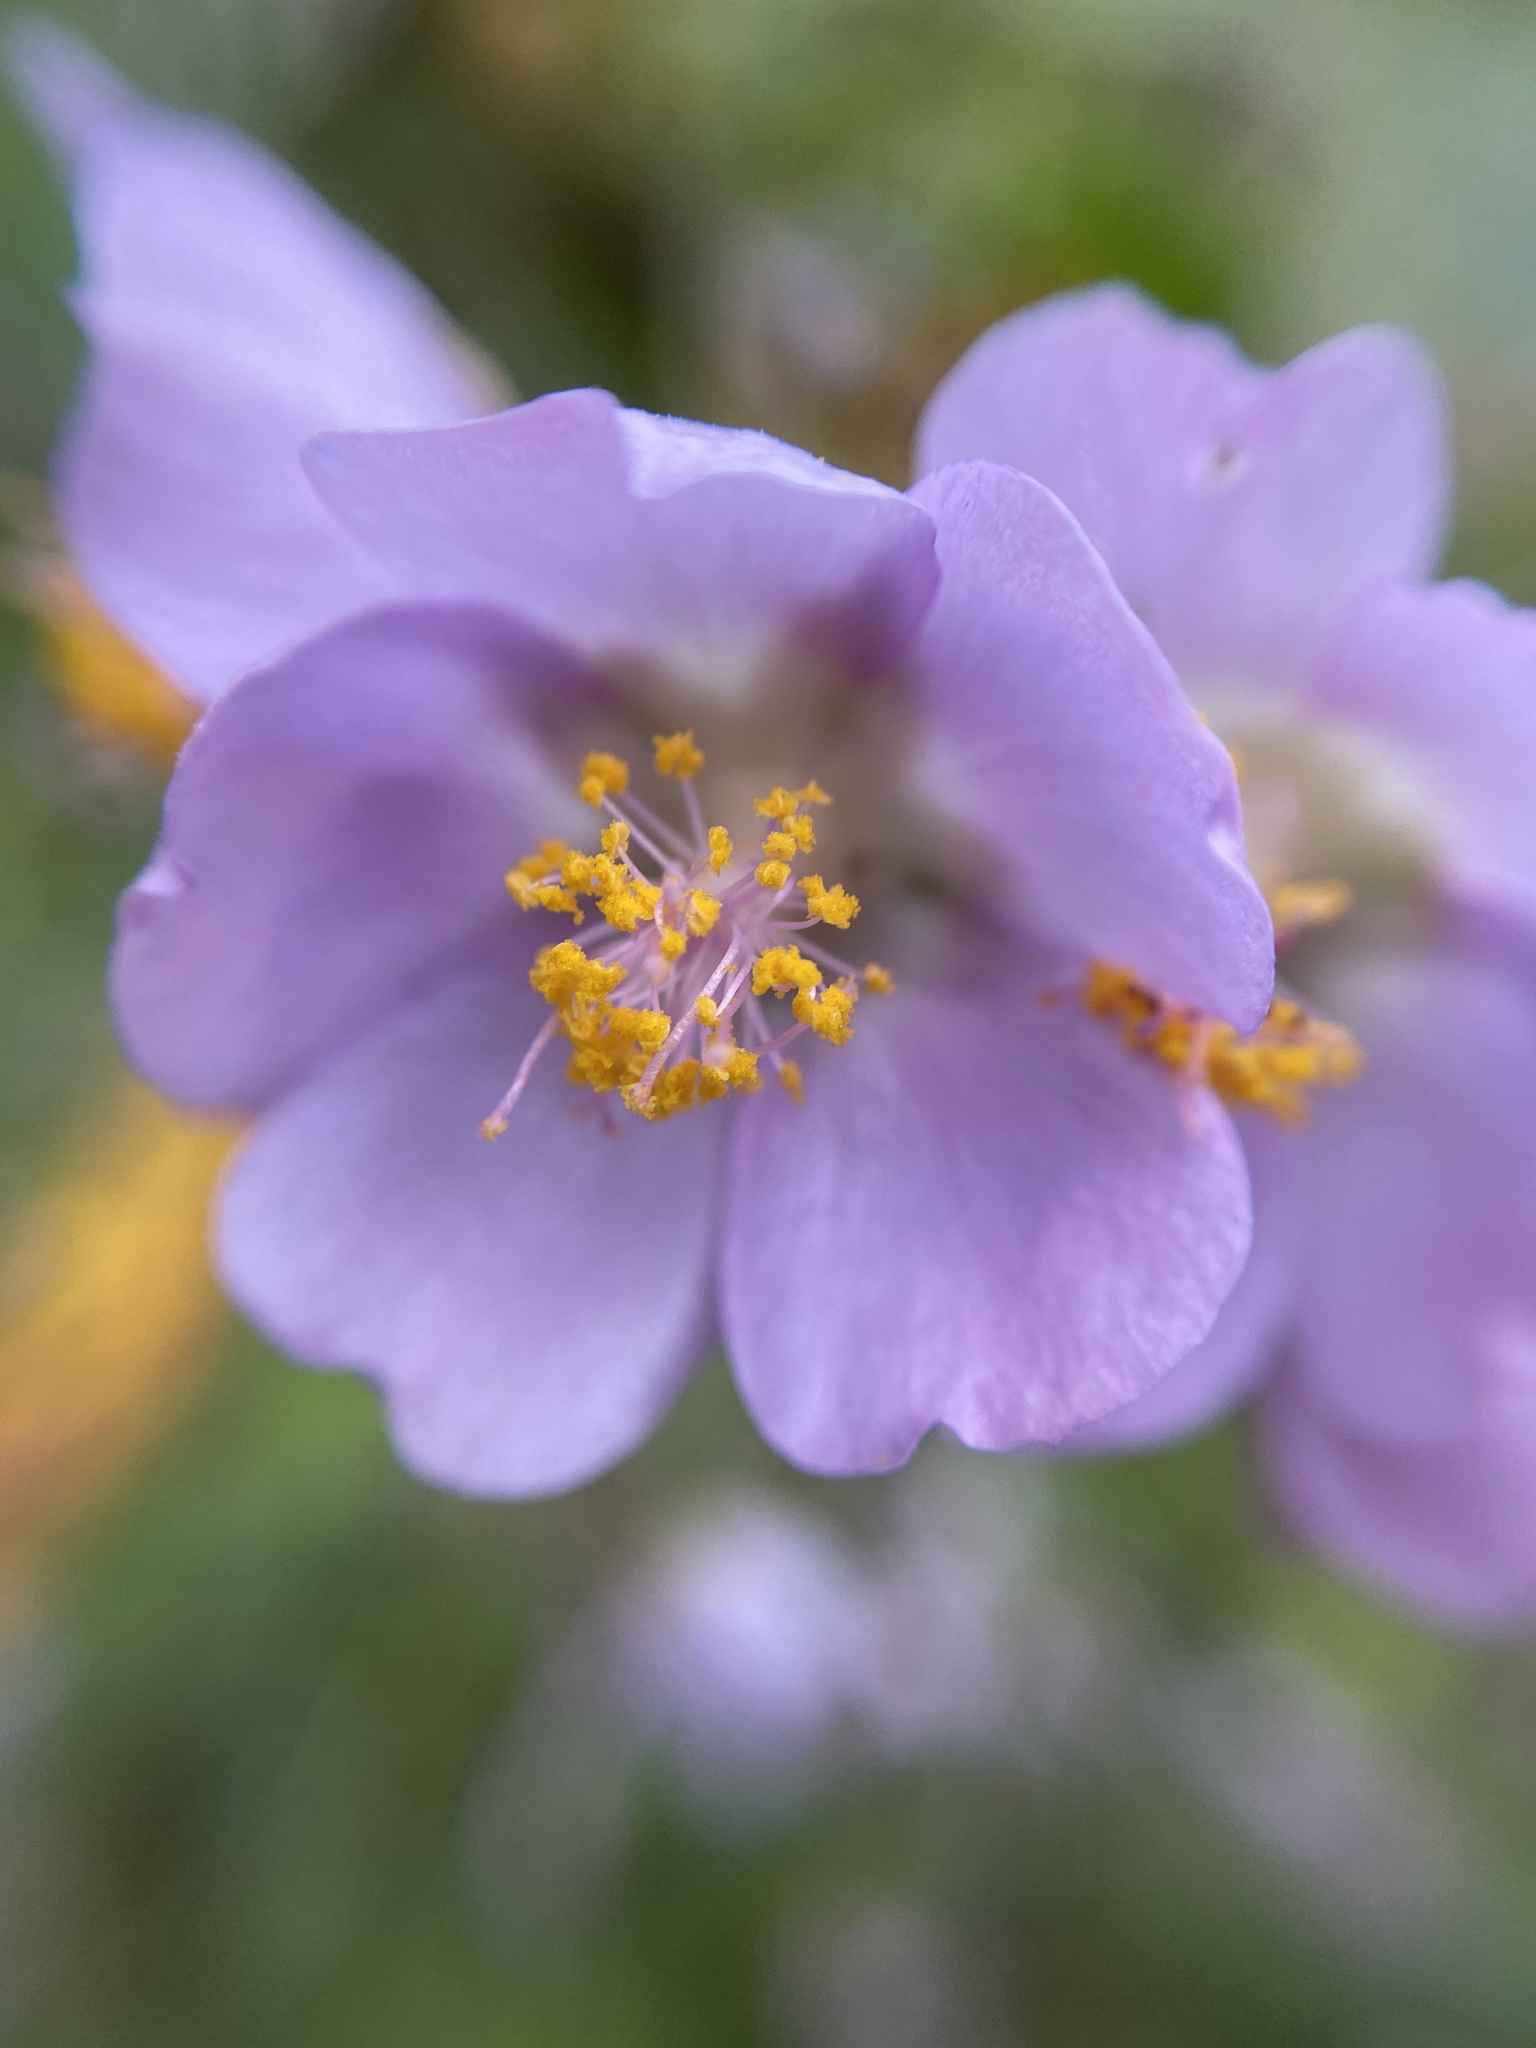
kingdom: Plantae
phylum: Tracheophyta
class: Magnoliopsida
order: Malvales
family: Malvaceae
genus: Monteiroa
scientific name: Monteiroa glomerata
